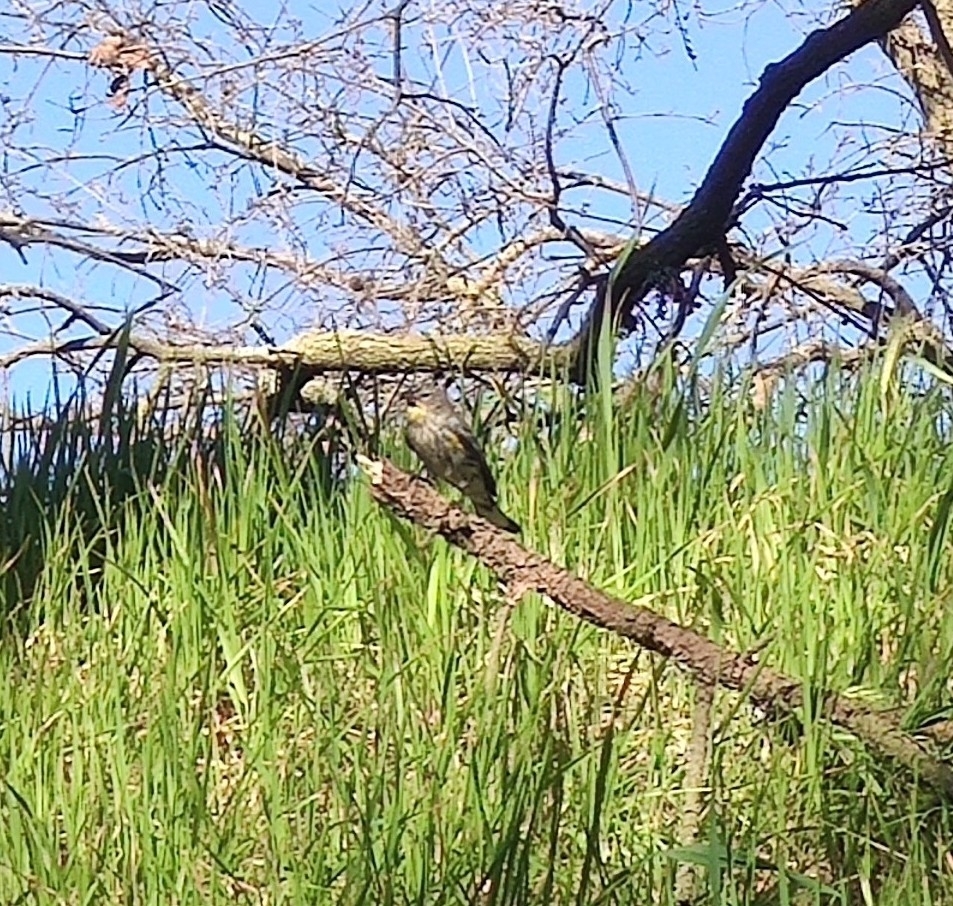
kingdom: Animalia
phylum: Chordata
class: Aves
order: Passeriformes
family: Parulidae
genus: Setophaga
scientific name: Setophaga coronata
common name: Myrtle warbler
